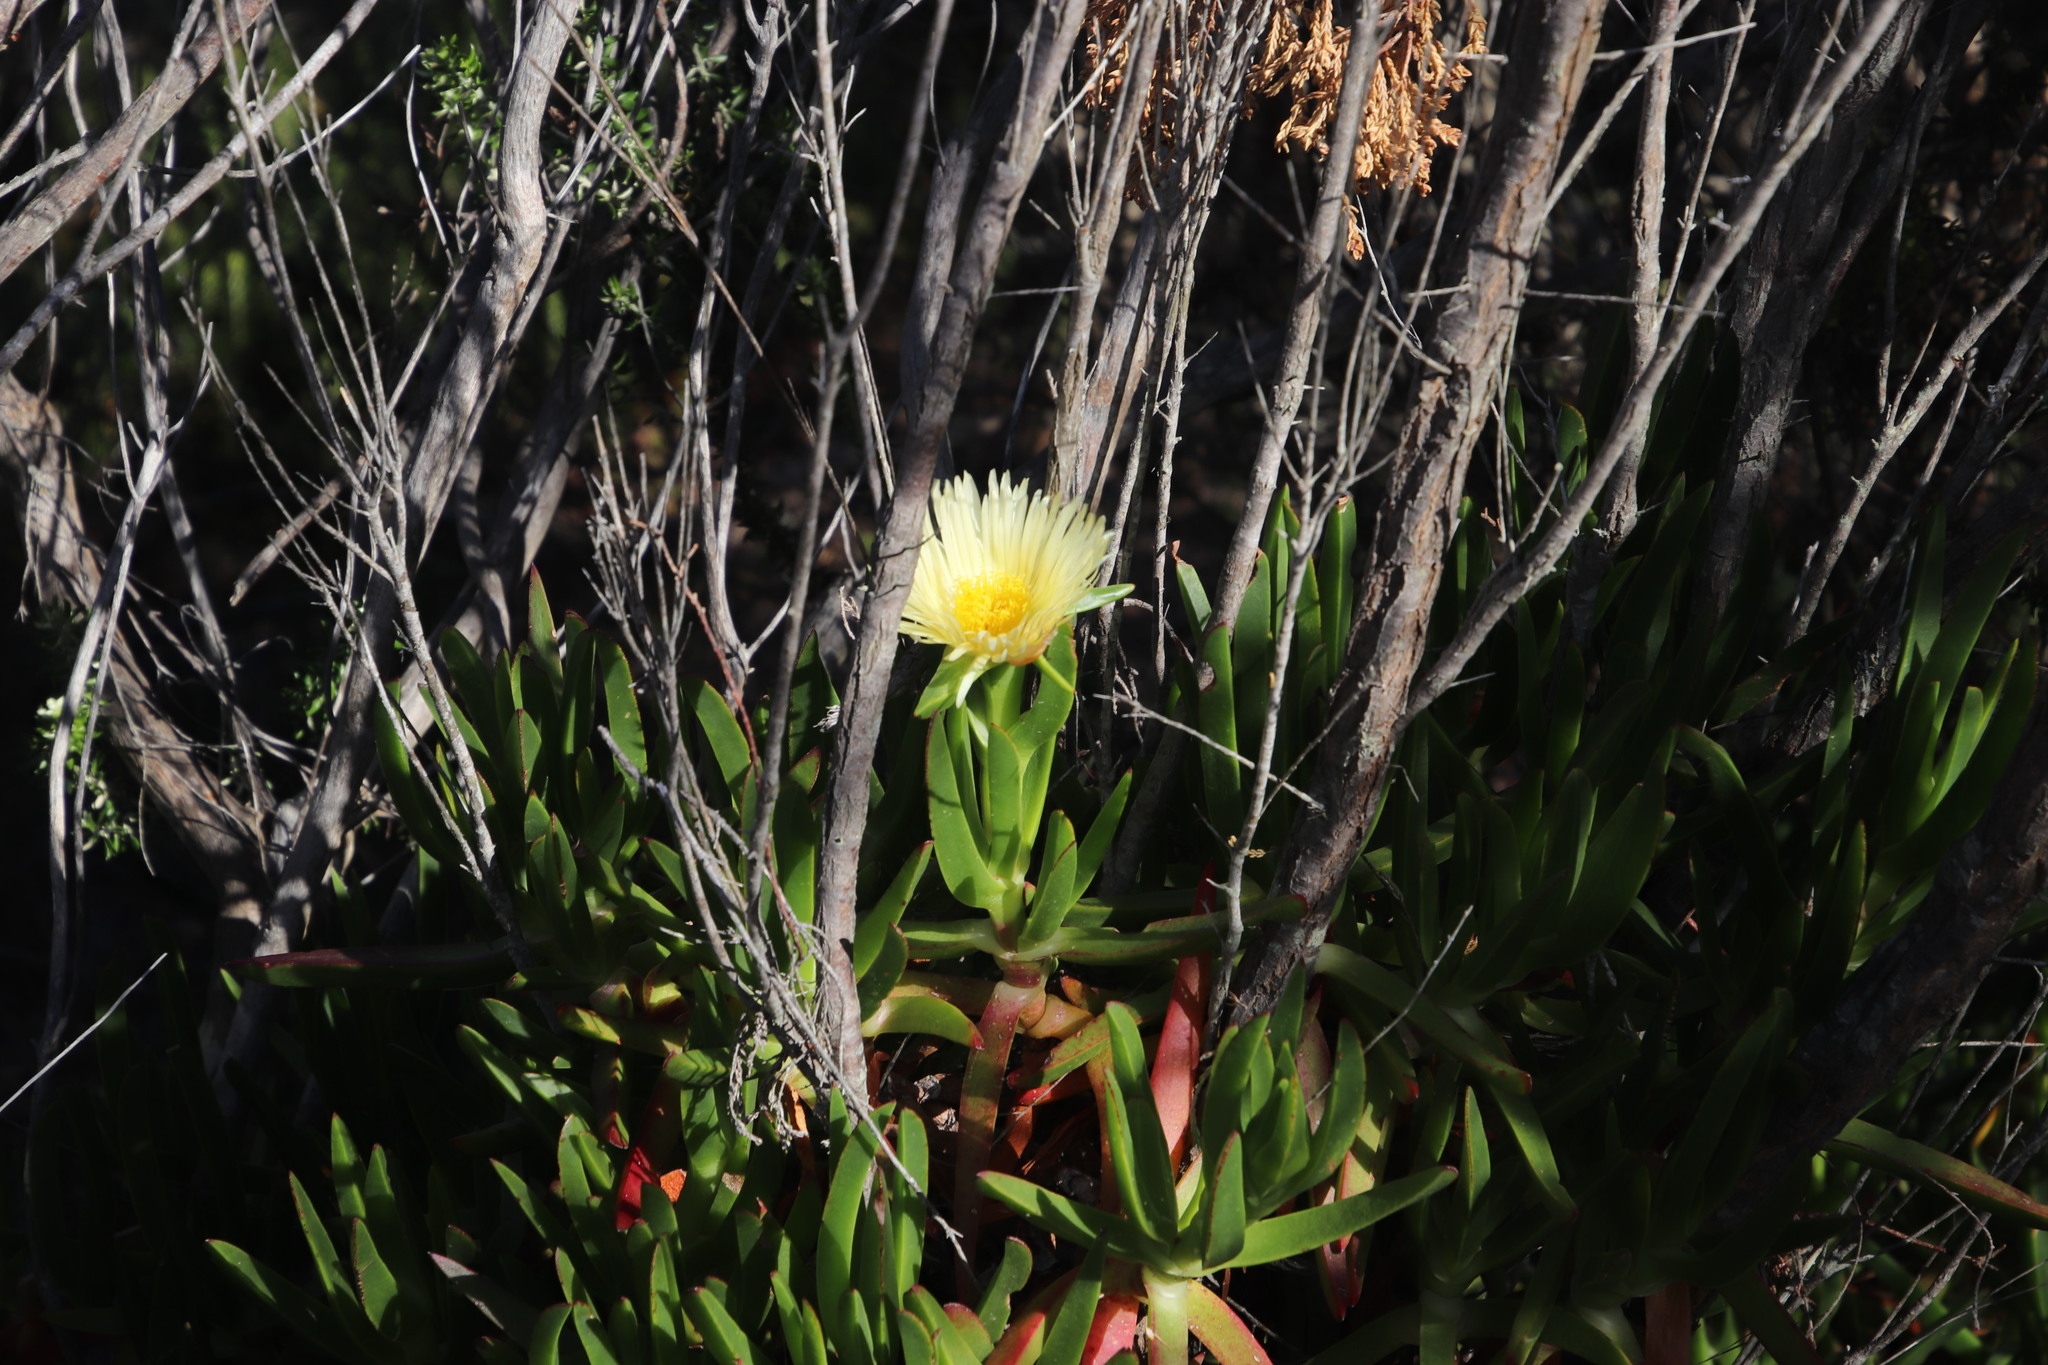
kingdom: Plantae
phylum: Tracheophyta
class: Magnoliopsida
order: Caryophyllales
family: Aizoaceae
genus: Carpobrotus
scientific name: Carpobrotus edulis
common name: Hottentot-fig
